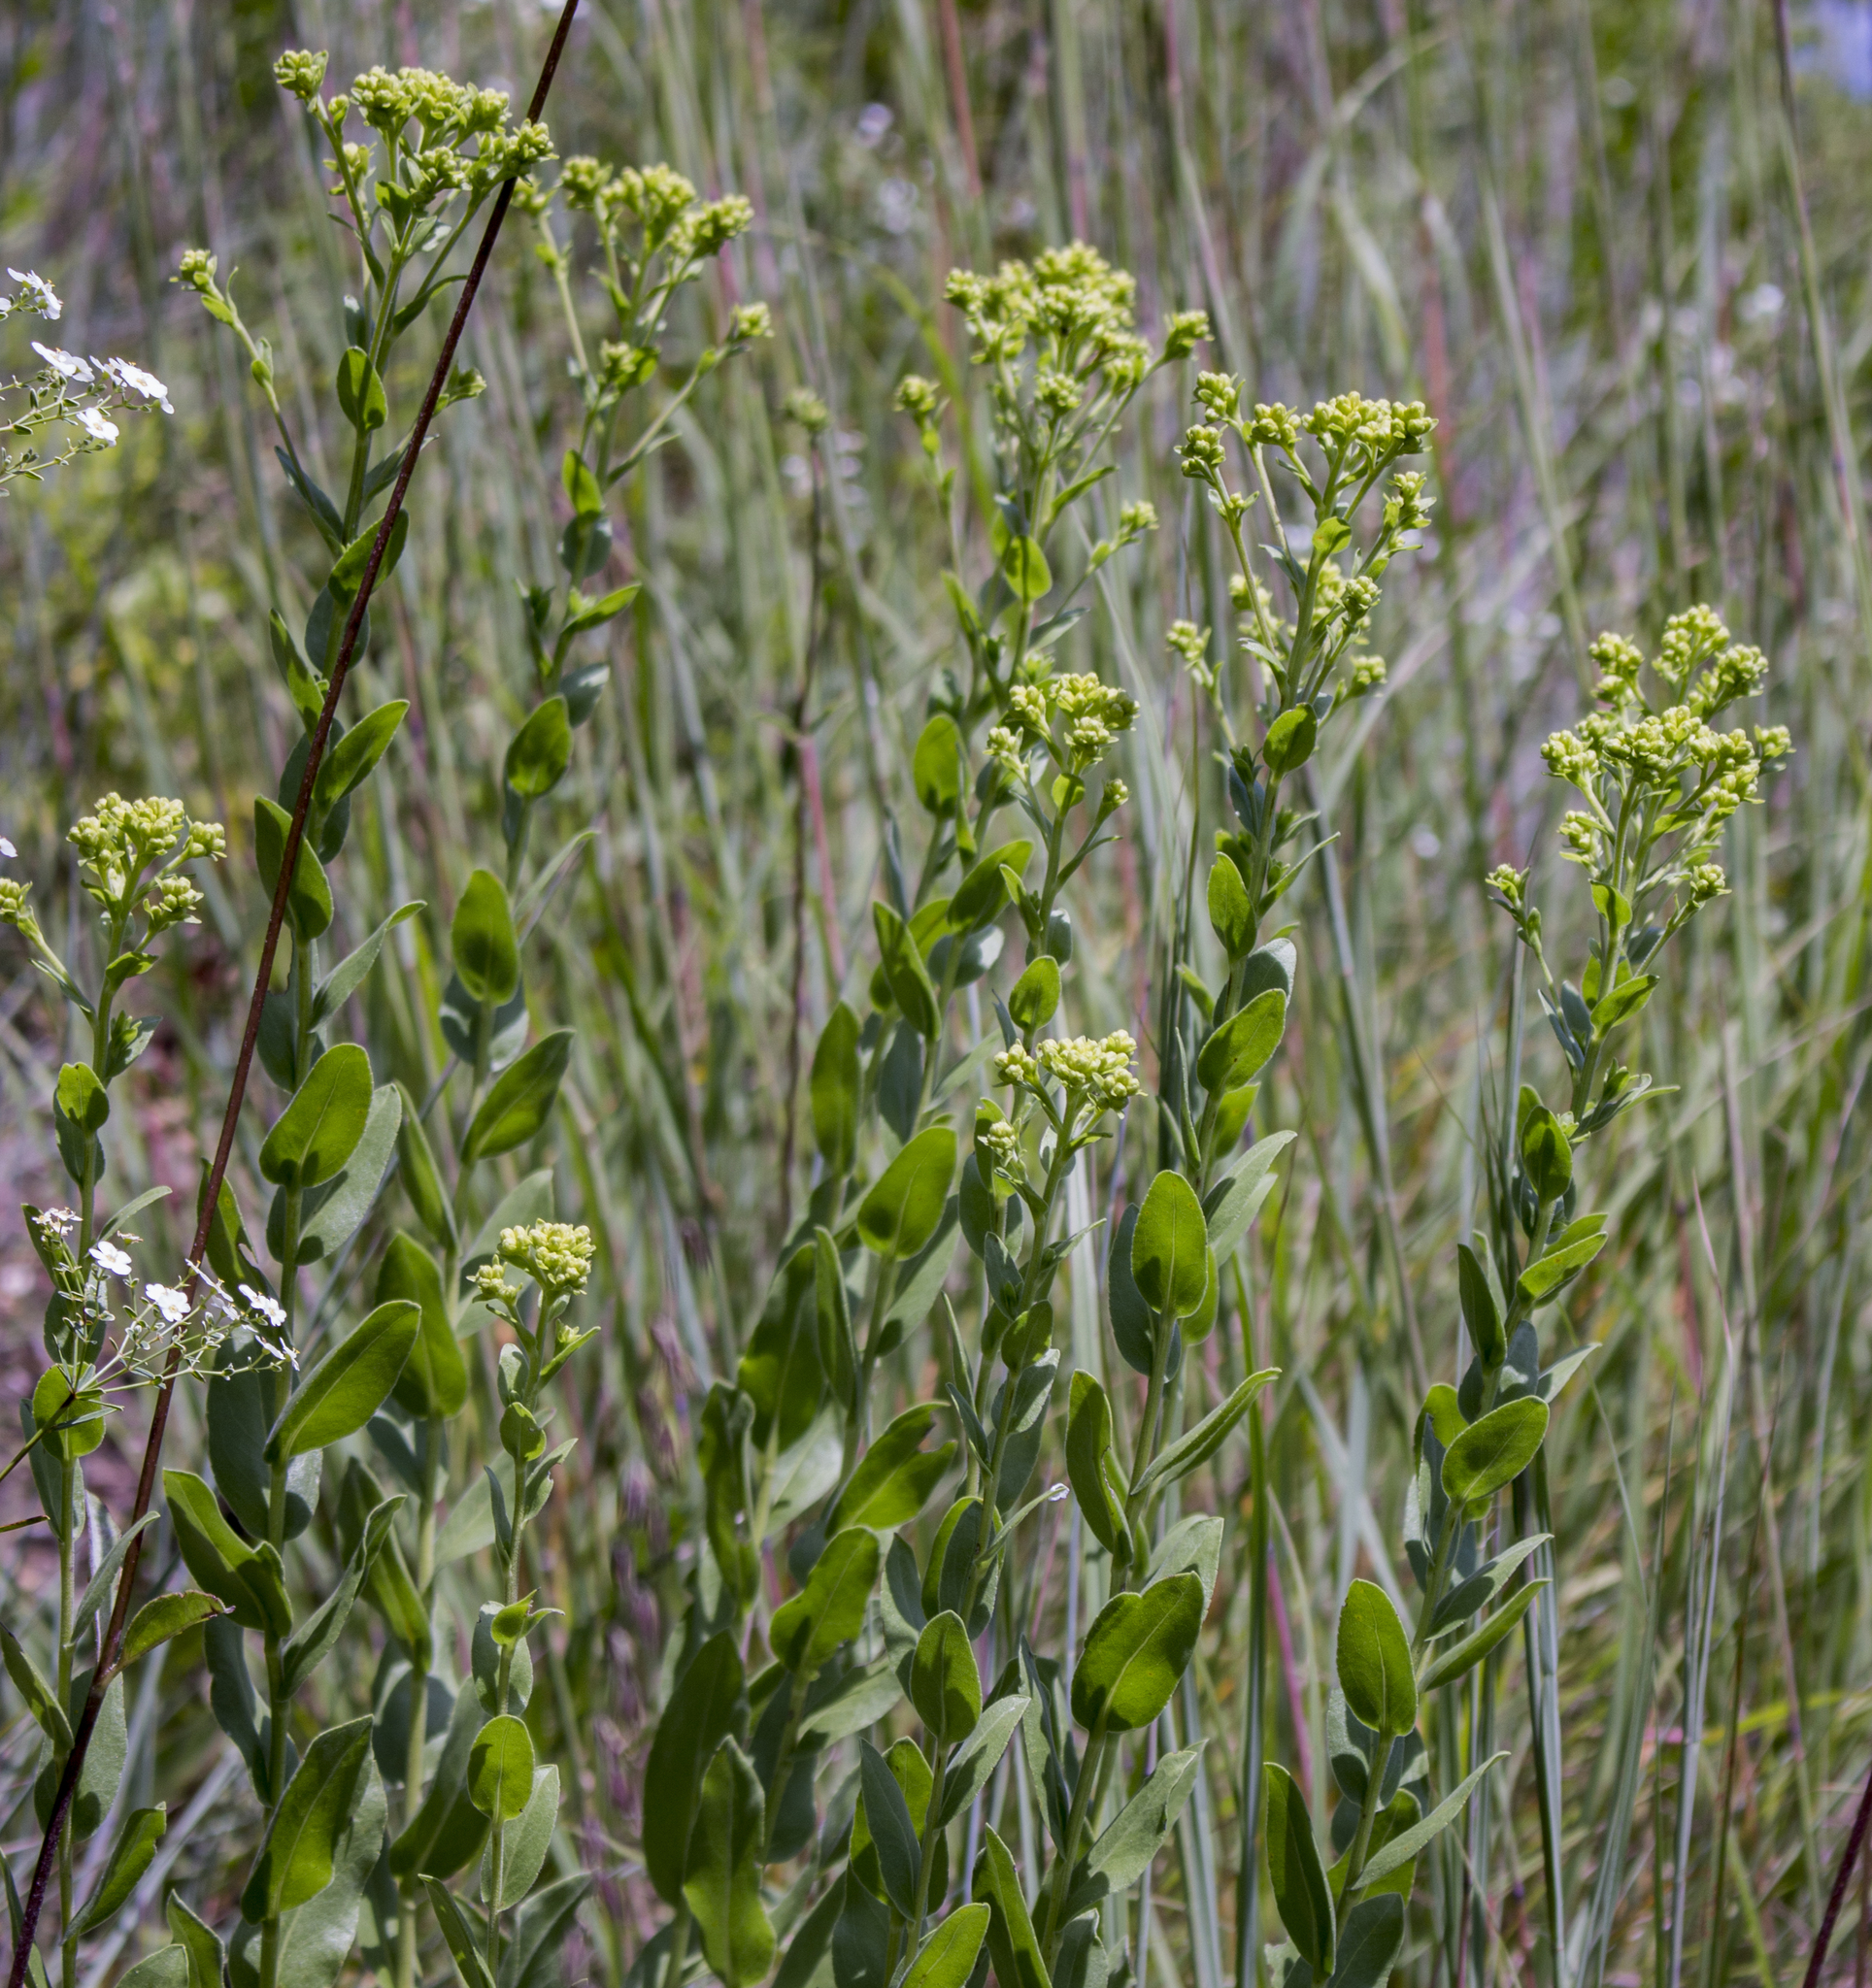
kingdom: Plantae
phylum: Tracheophyta
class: Magnoliopsida
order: Asterales
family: Asteraceae
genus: Solidago
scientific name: Solidago rigida
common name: Rigid goldenrod
